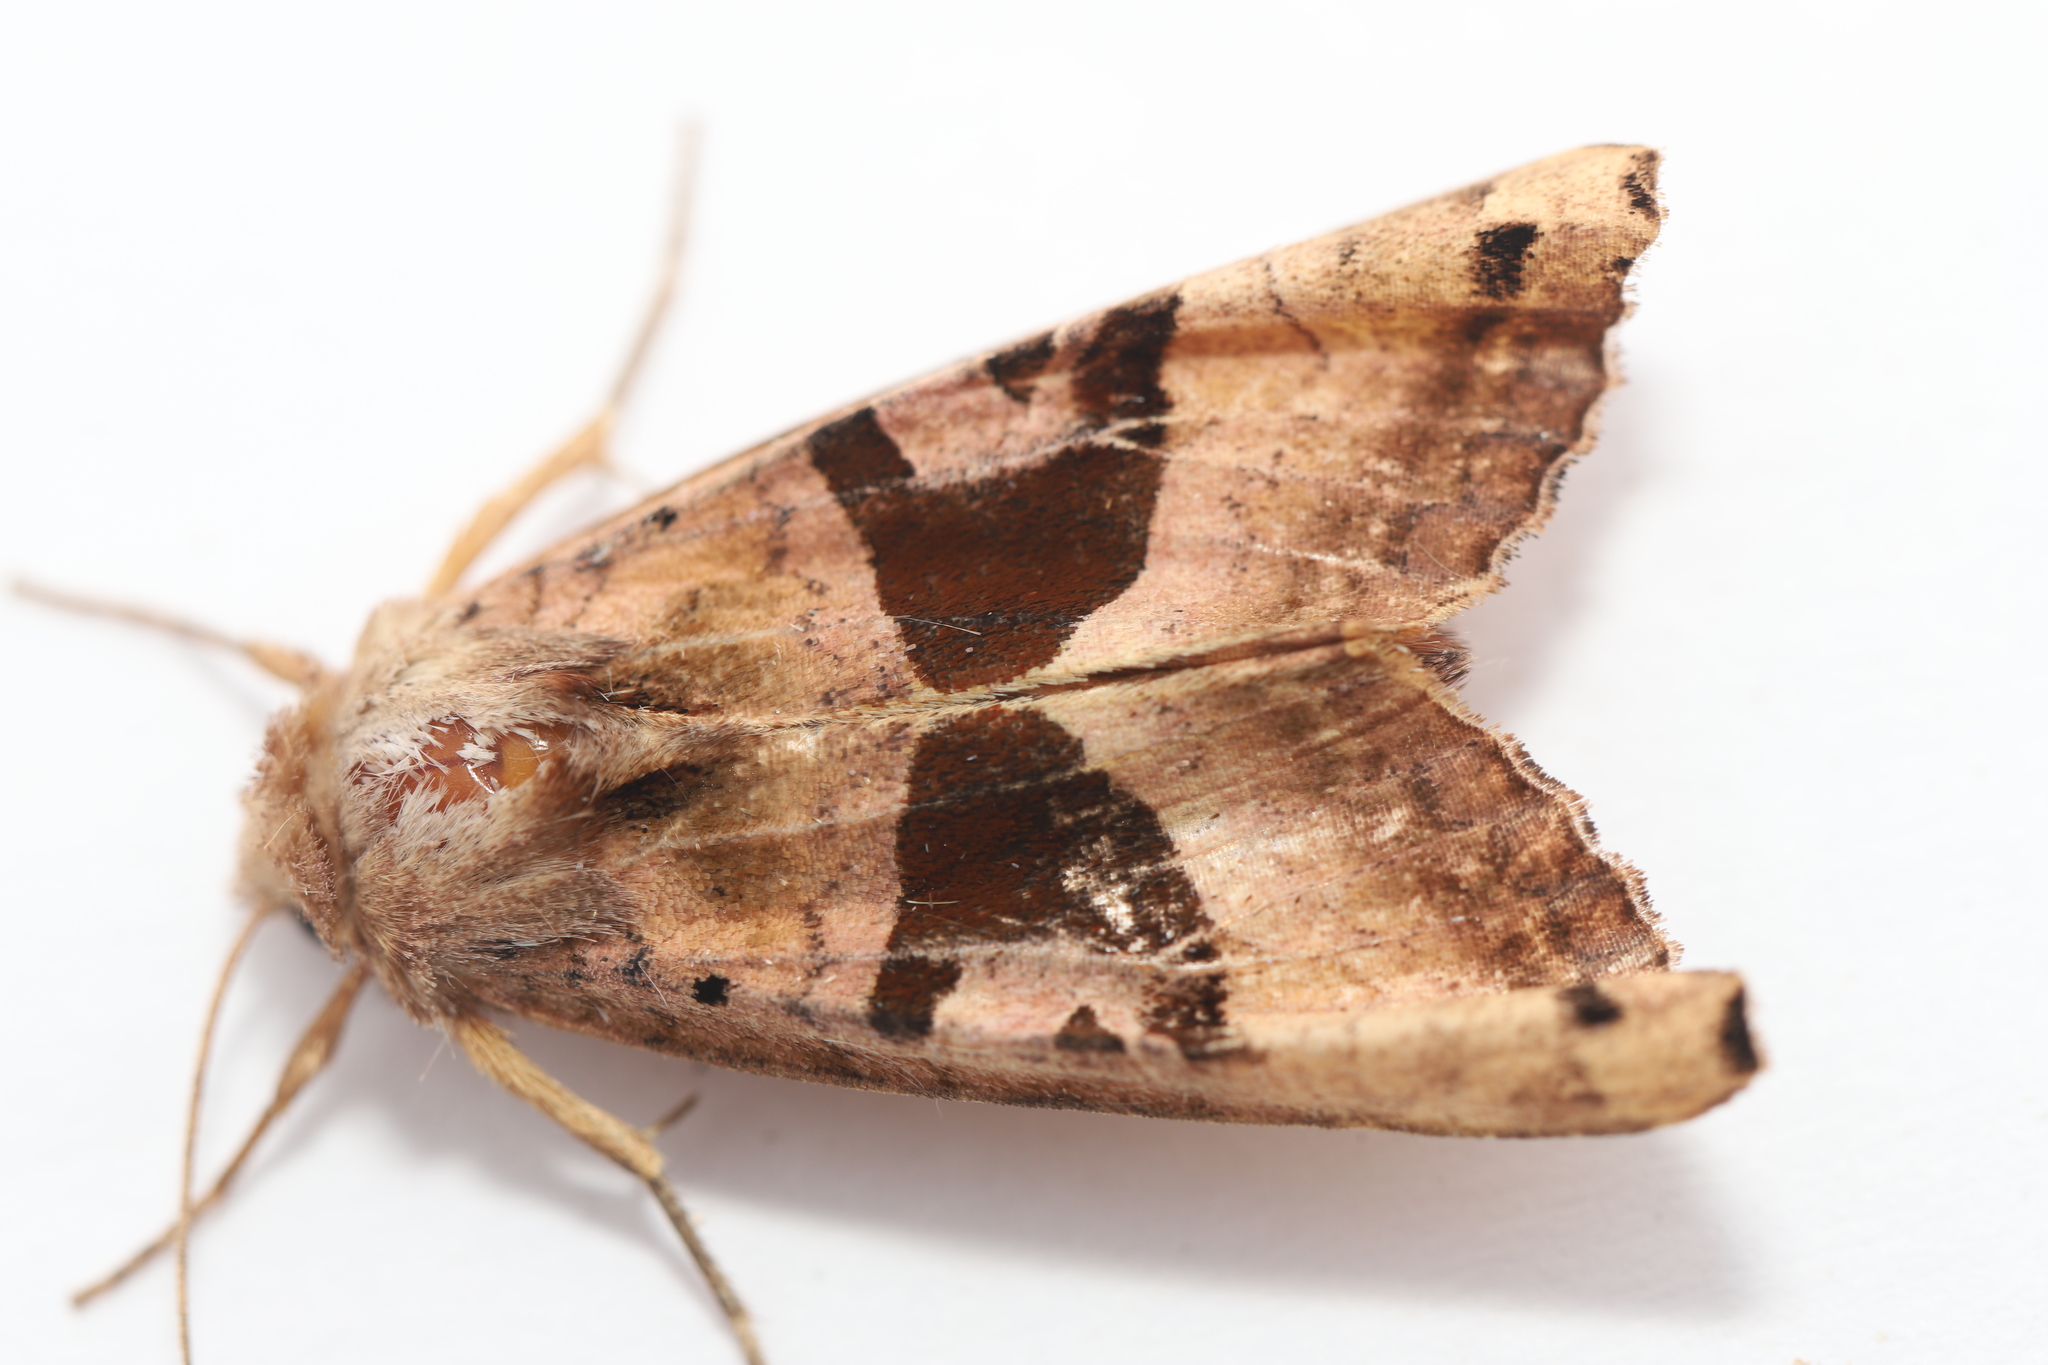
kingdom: Animalia
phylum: Arthropoda
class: Insecta
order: Lepidoptera
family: Noctuidae
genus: Phlogophora
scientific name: Phlogophora periculosa
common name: Brown angle shades
